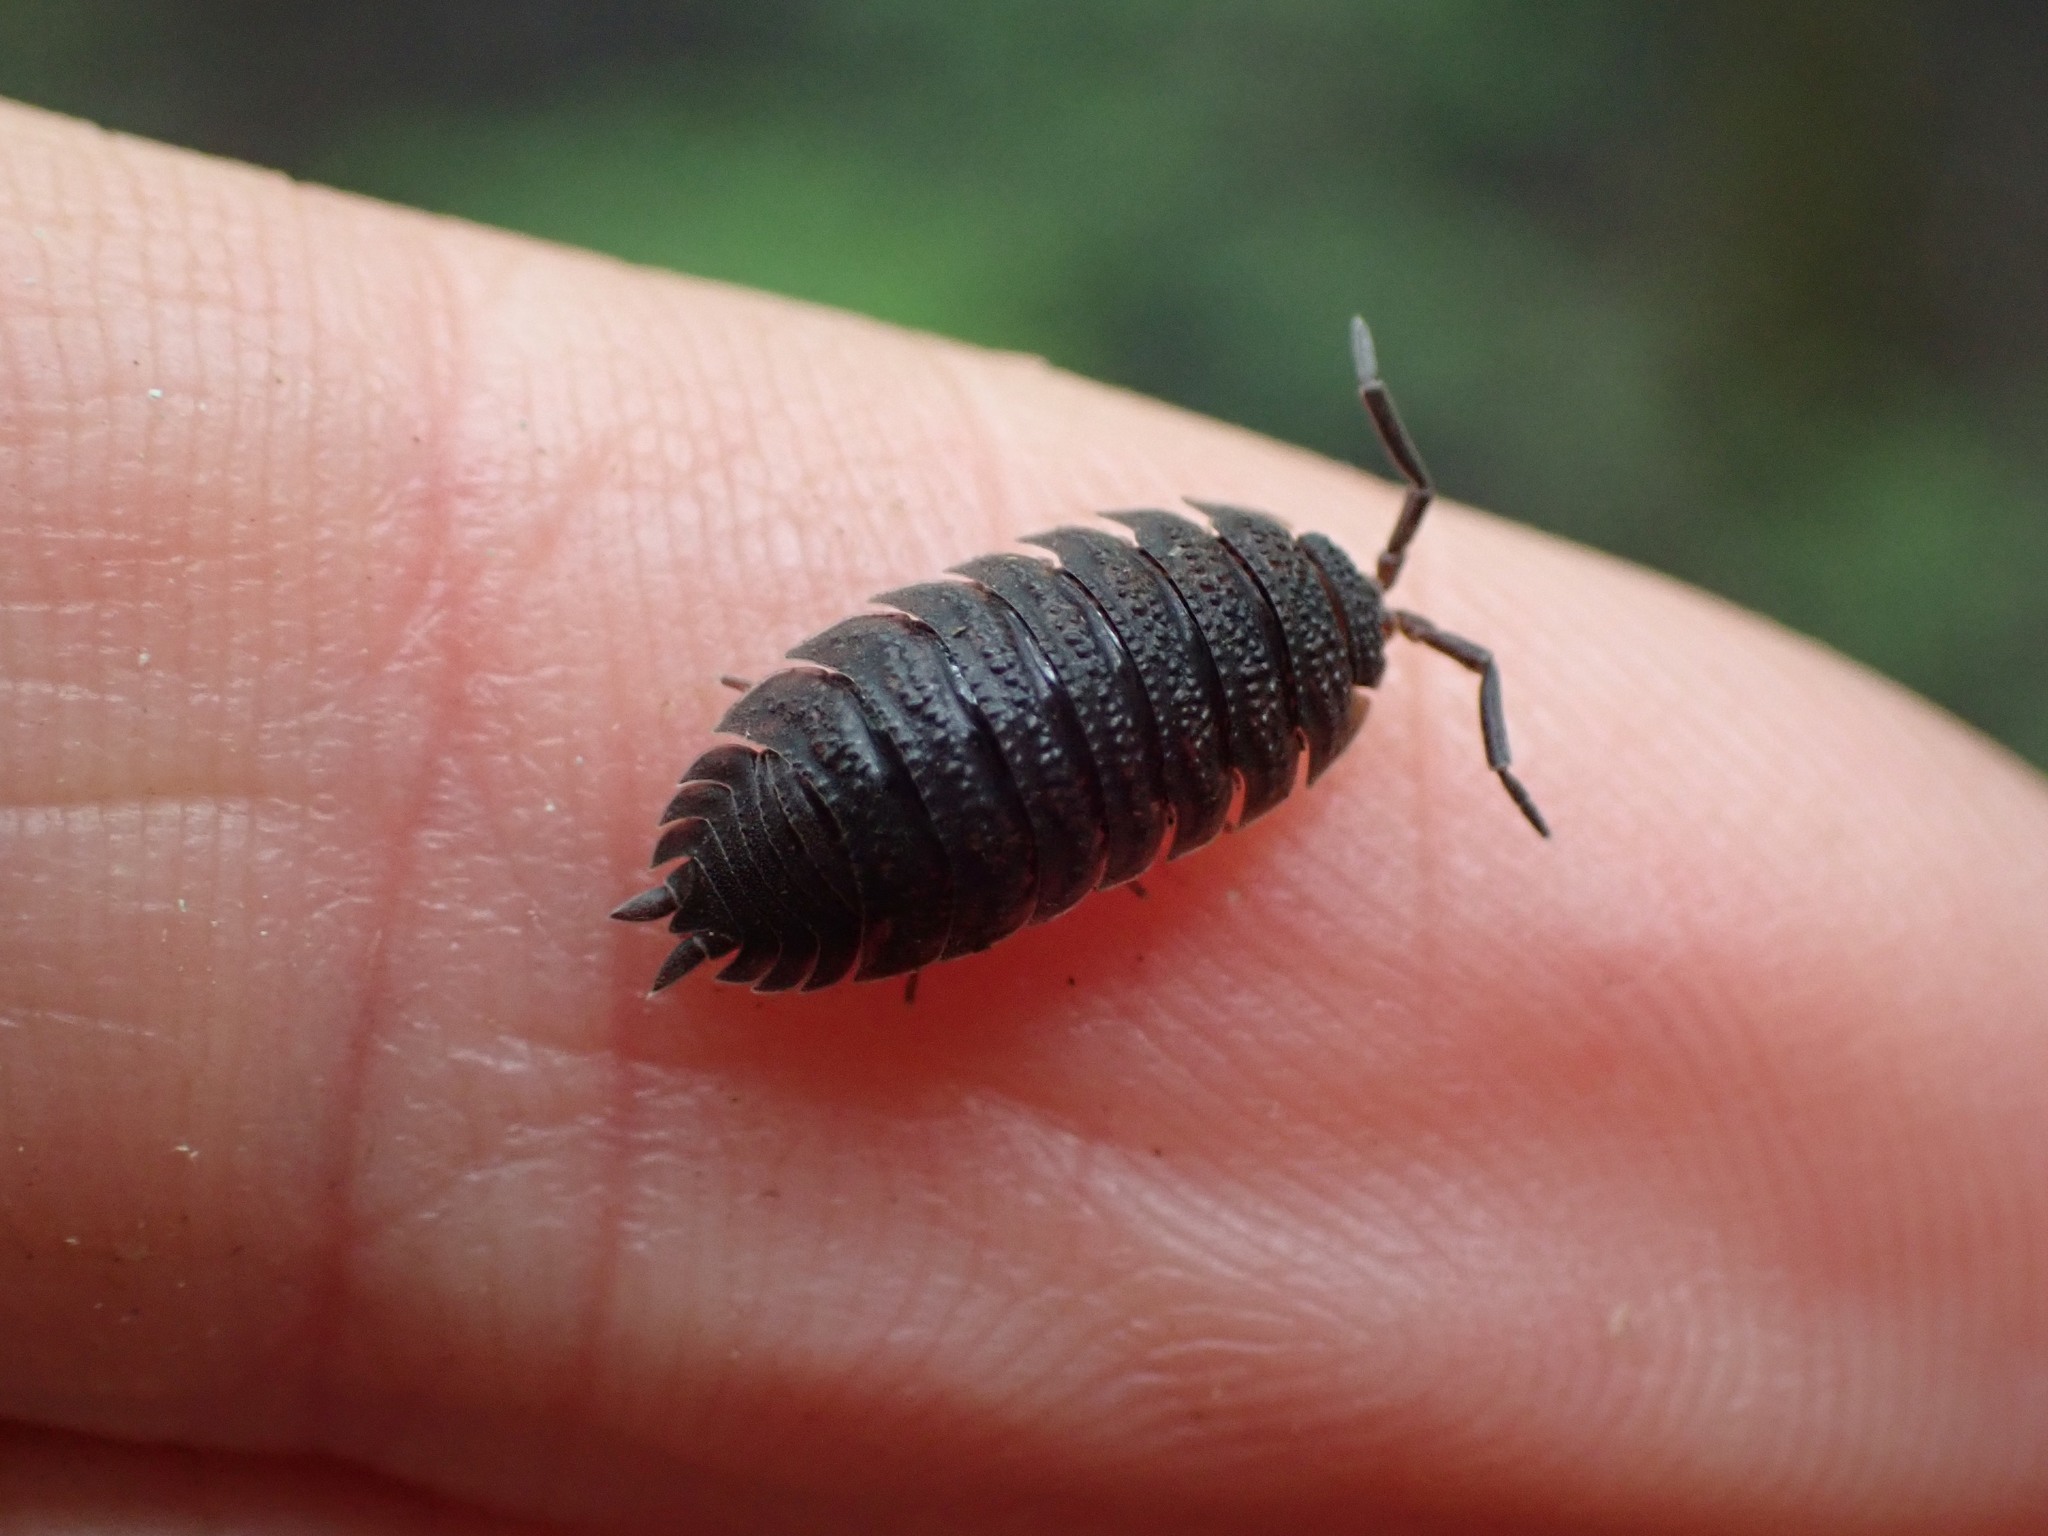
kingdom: Animalia
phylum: Arthropoda
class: Malacostraca
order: Isopoda
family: Porcellionidae
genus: Porcellio
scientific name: Porcellio scaber
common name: Common rough woodlouse
